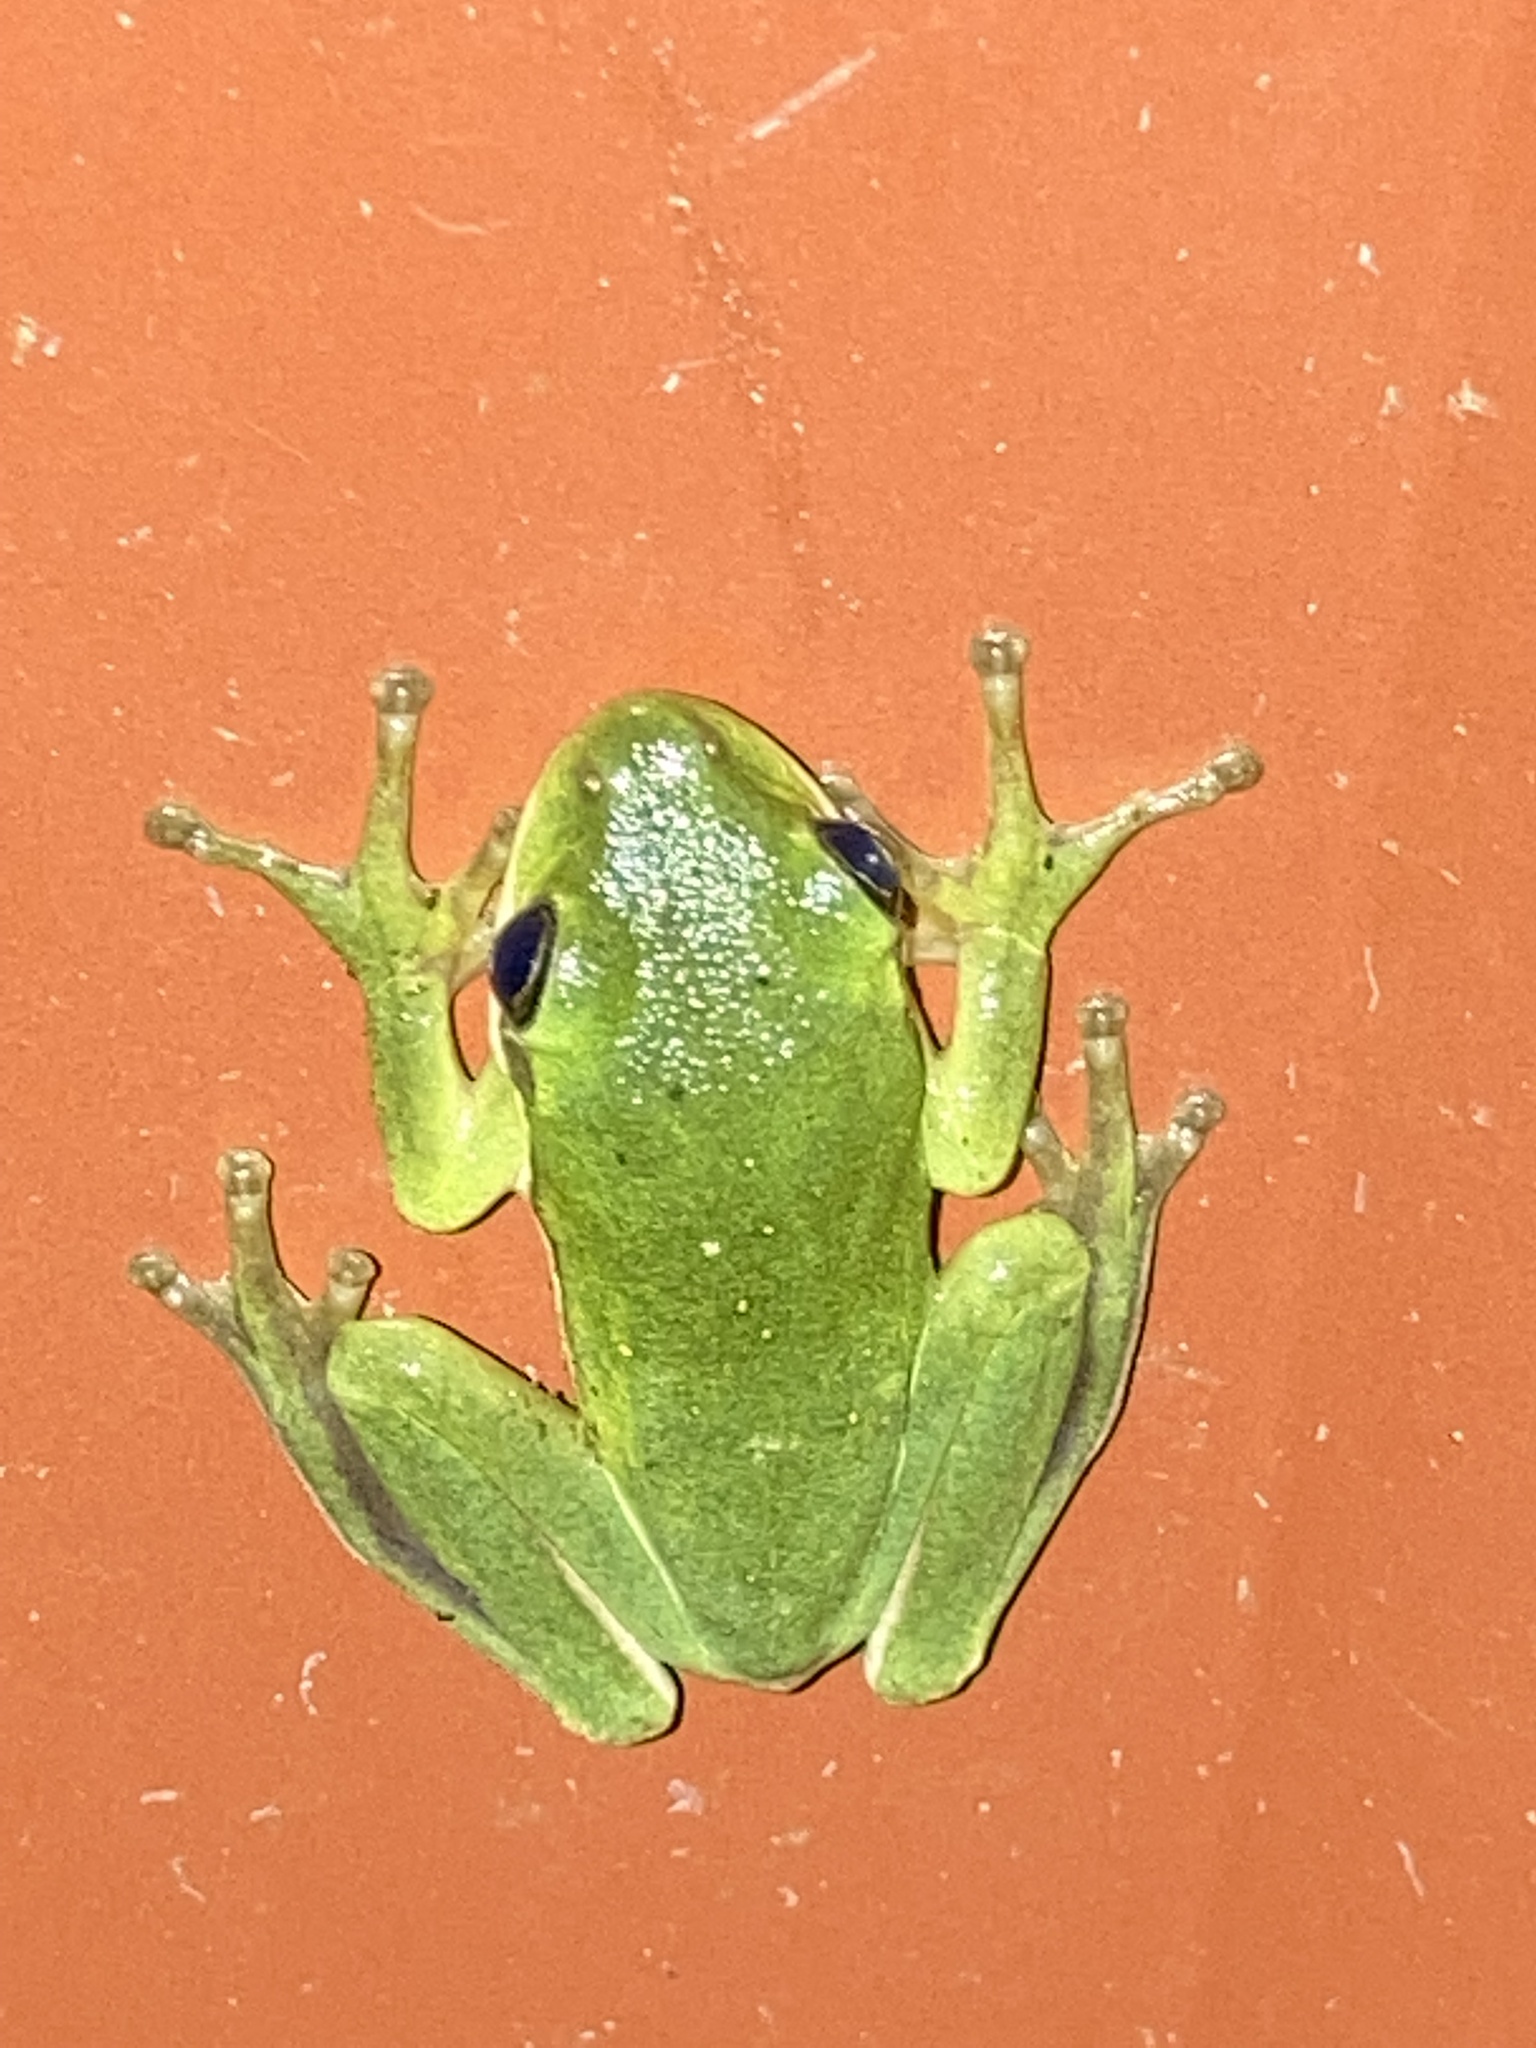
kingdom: Animalia
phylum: Chordata
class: Amphibia
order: Anura
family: Hylidae
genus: Dryophytes
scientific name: Dryophytes cinereus
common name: Green treefrog
